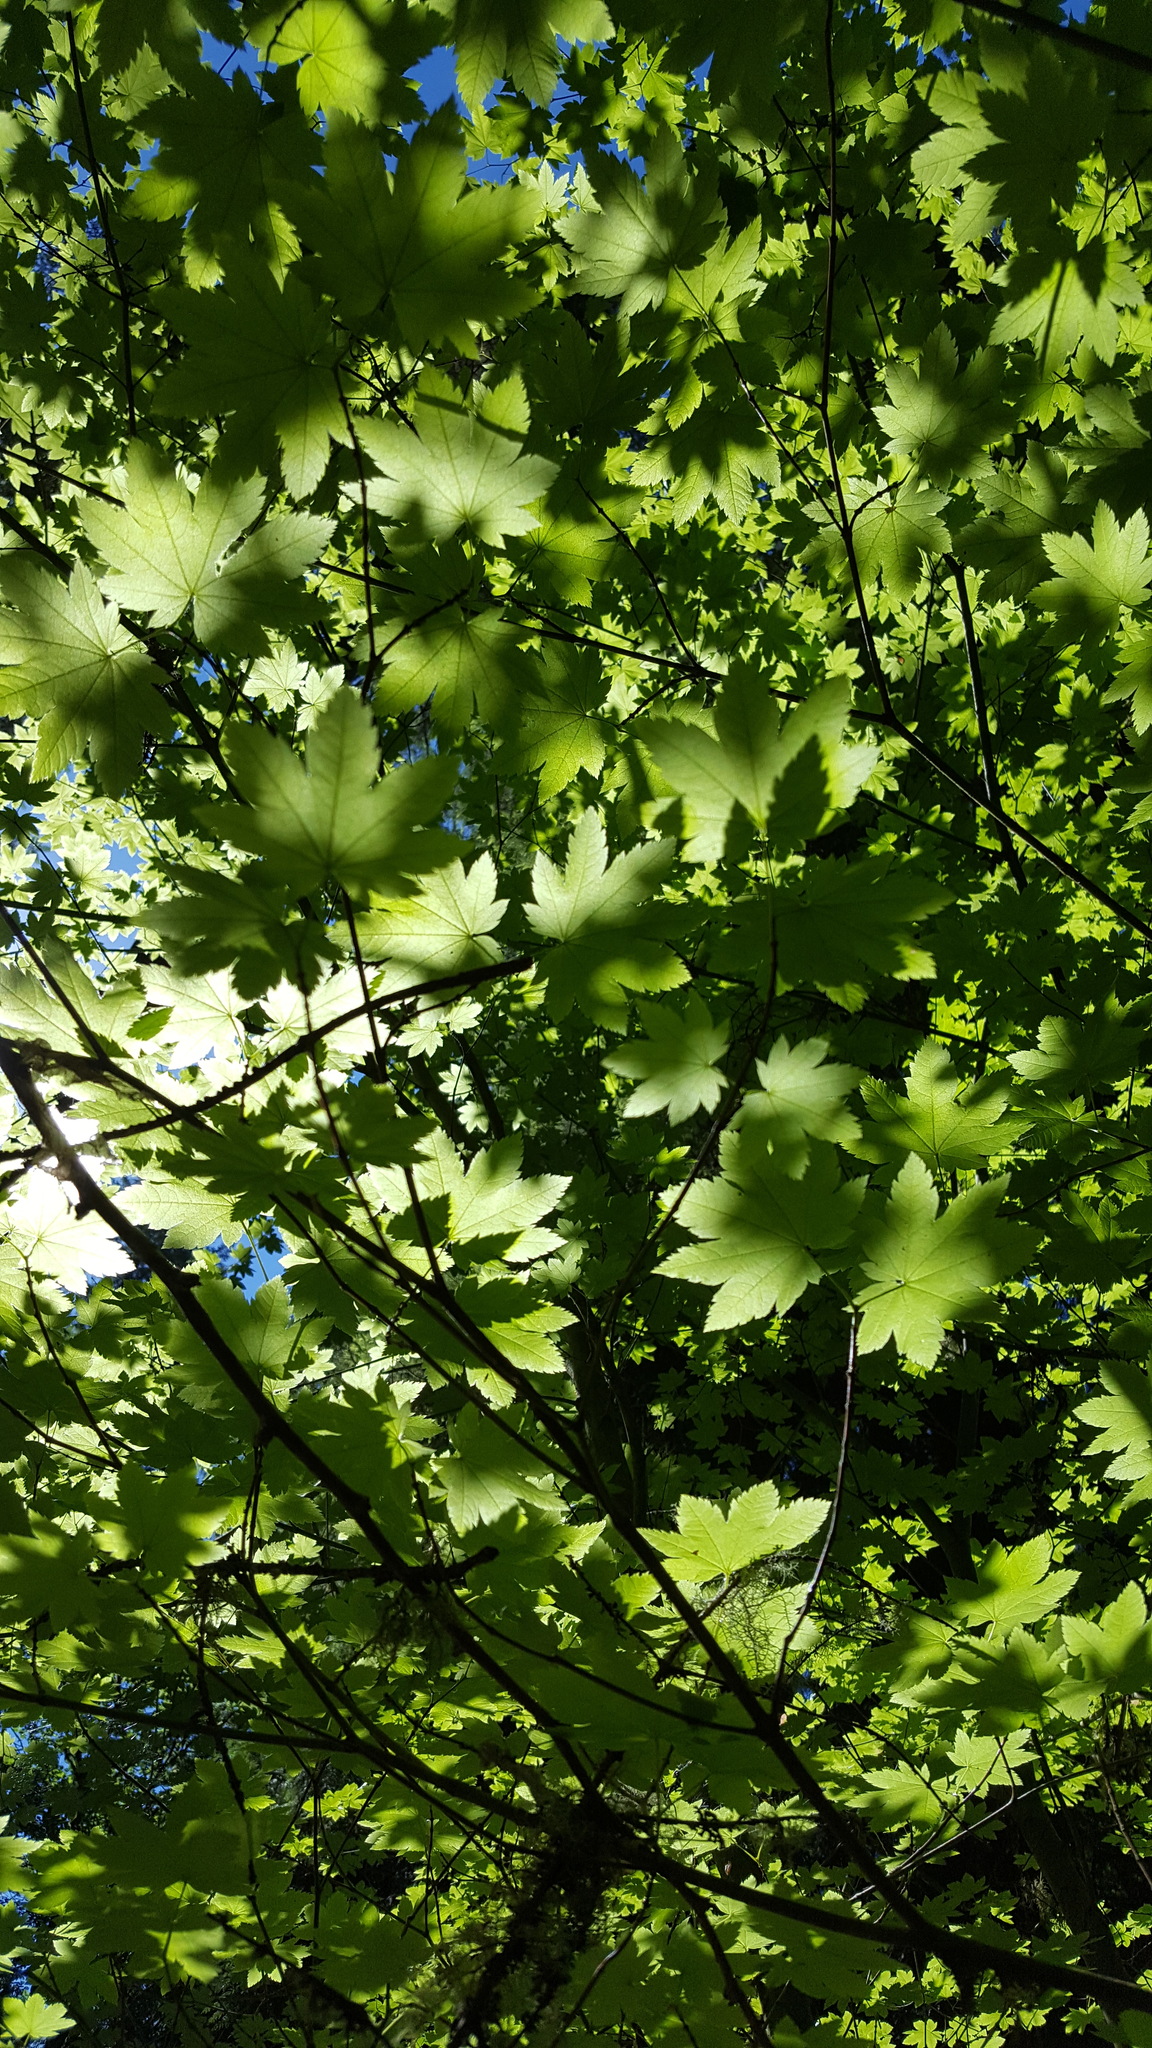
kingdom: Plantae
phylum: Tracheophyta
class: Magnoliopsida
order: Sapindales
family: Sapindaceae
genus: Acer
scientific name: Acer circinatum
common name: Vine maple
